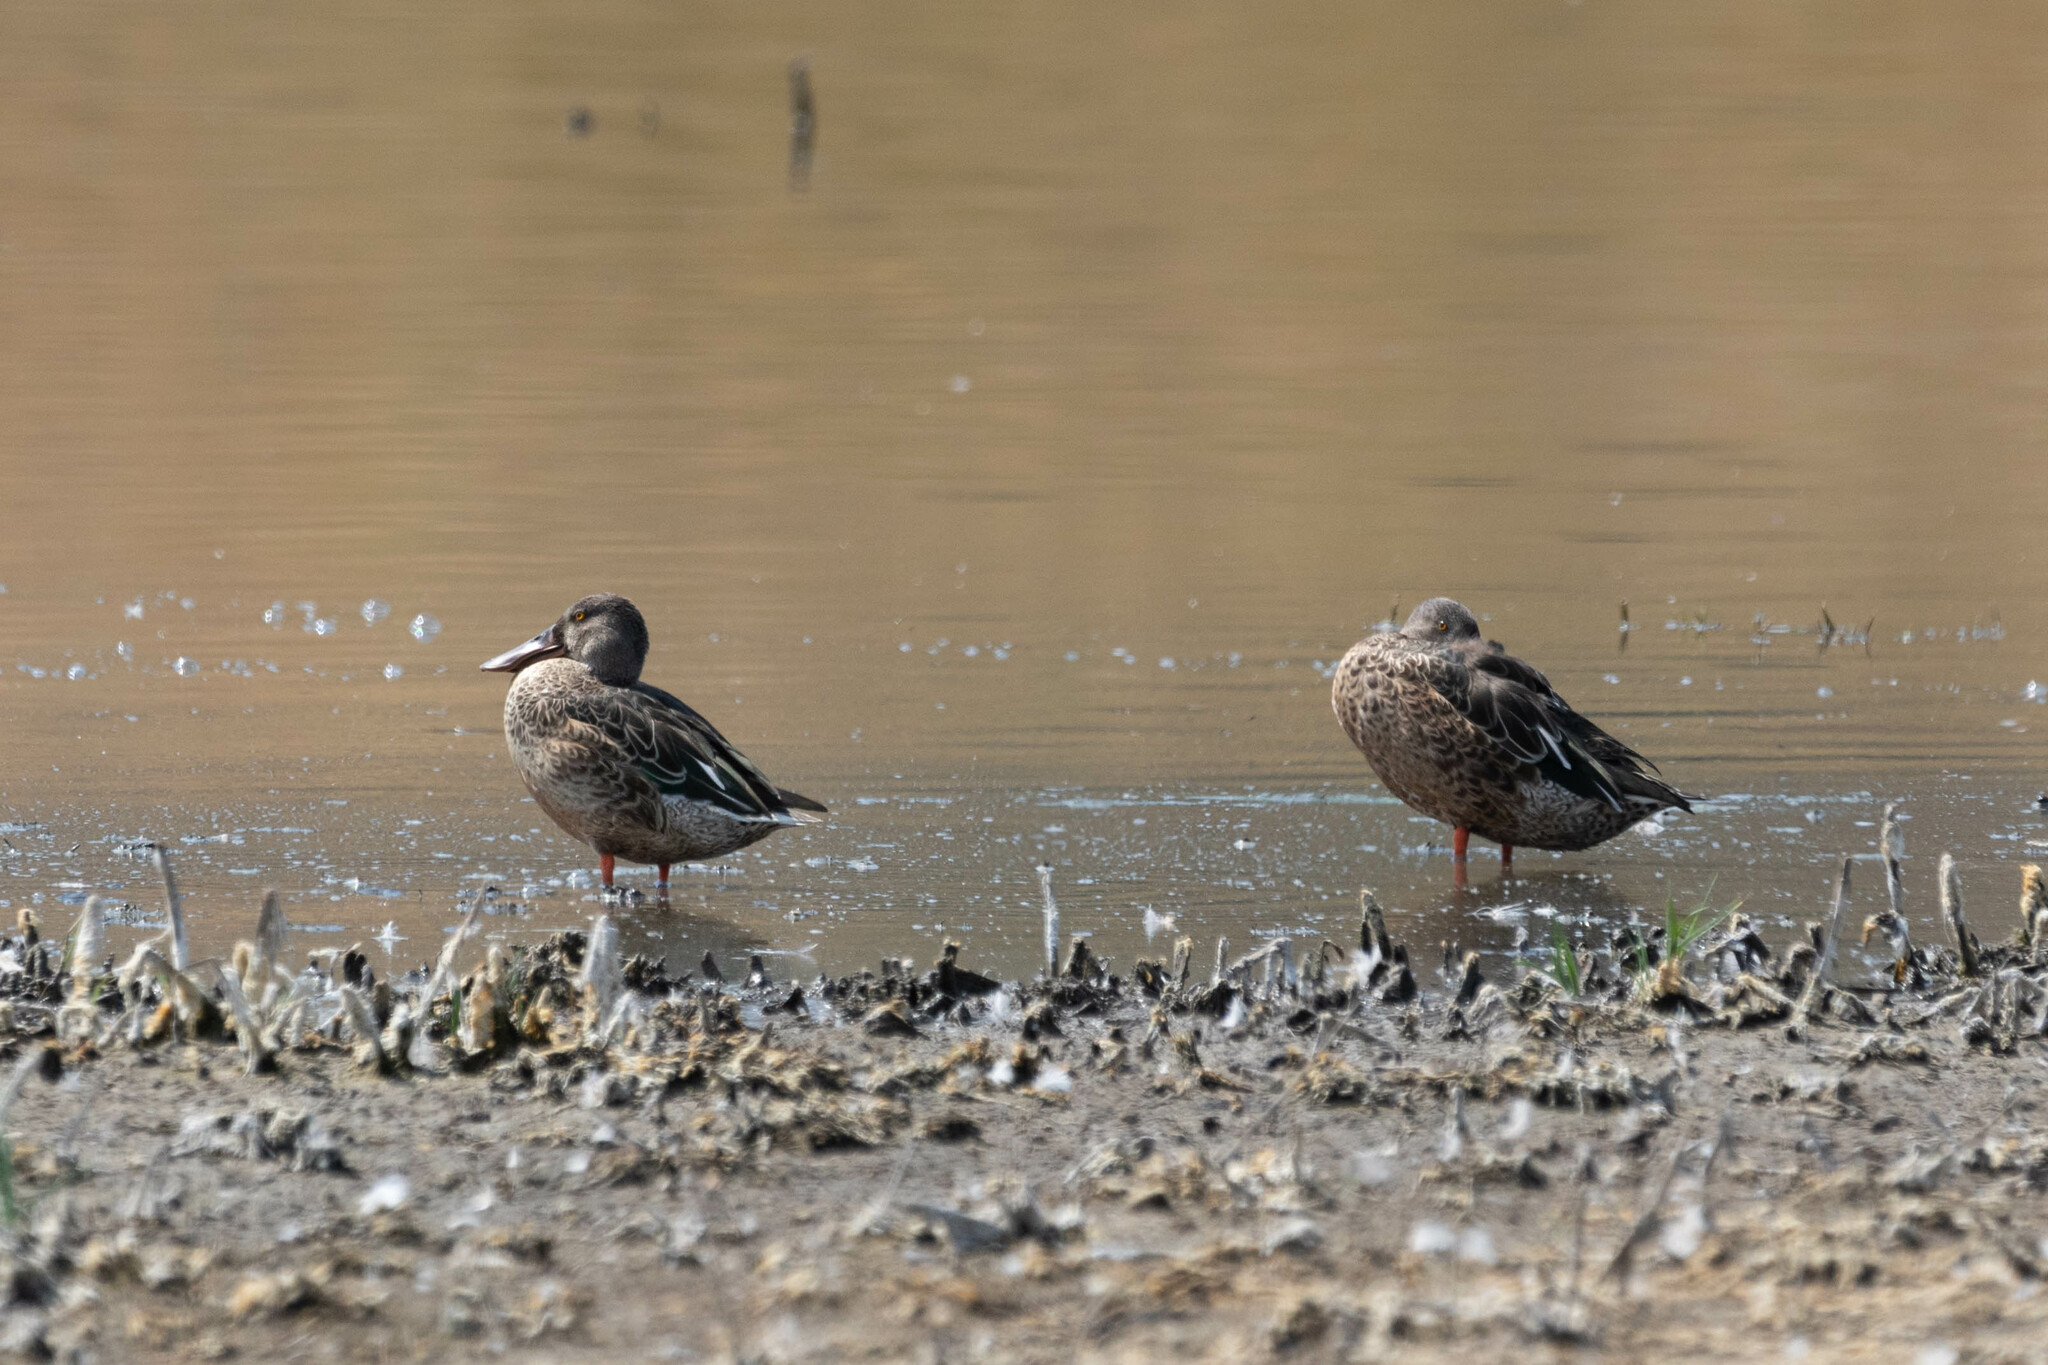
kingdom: Animalia
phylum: Chordata
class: Aves
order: Anseriformes
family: Anatidae
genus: Spatula
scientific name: Spatula clypeata
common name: Northern shoveler
